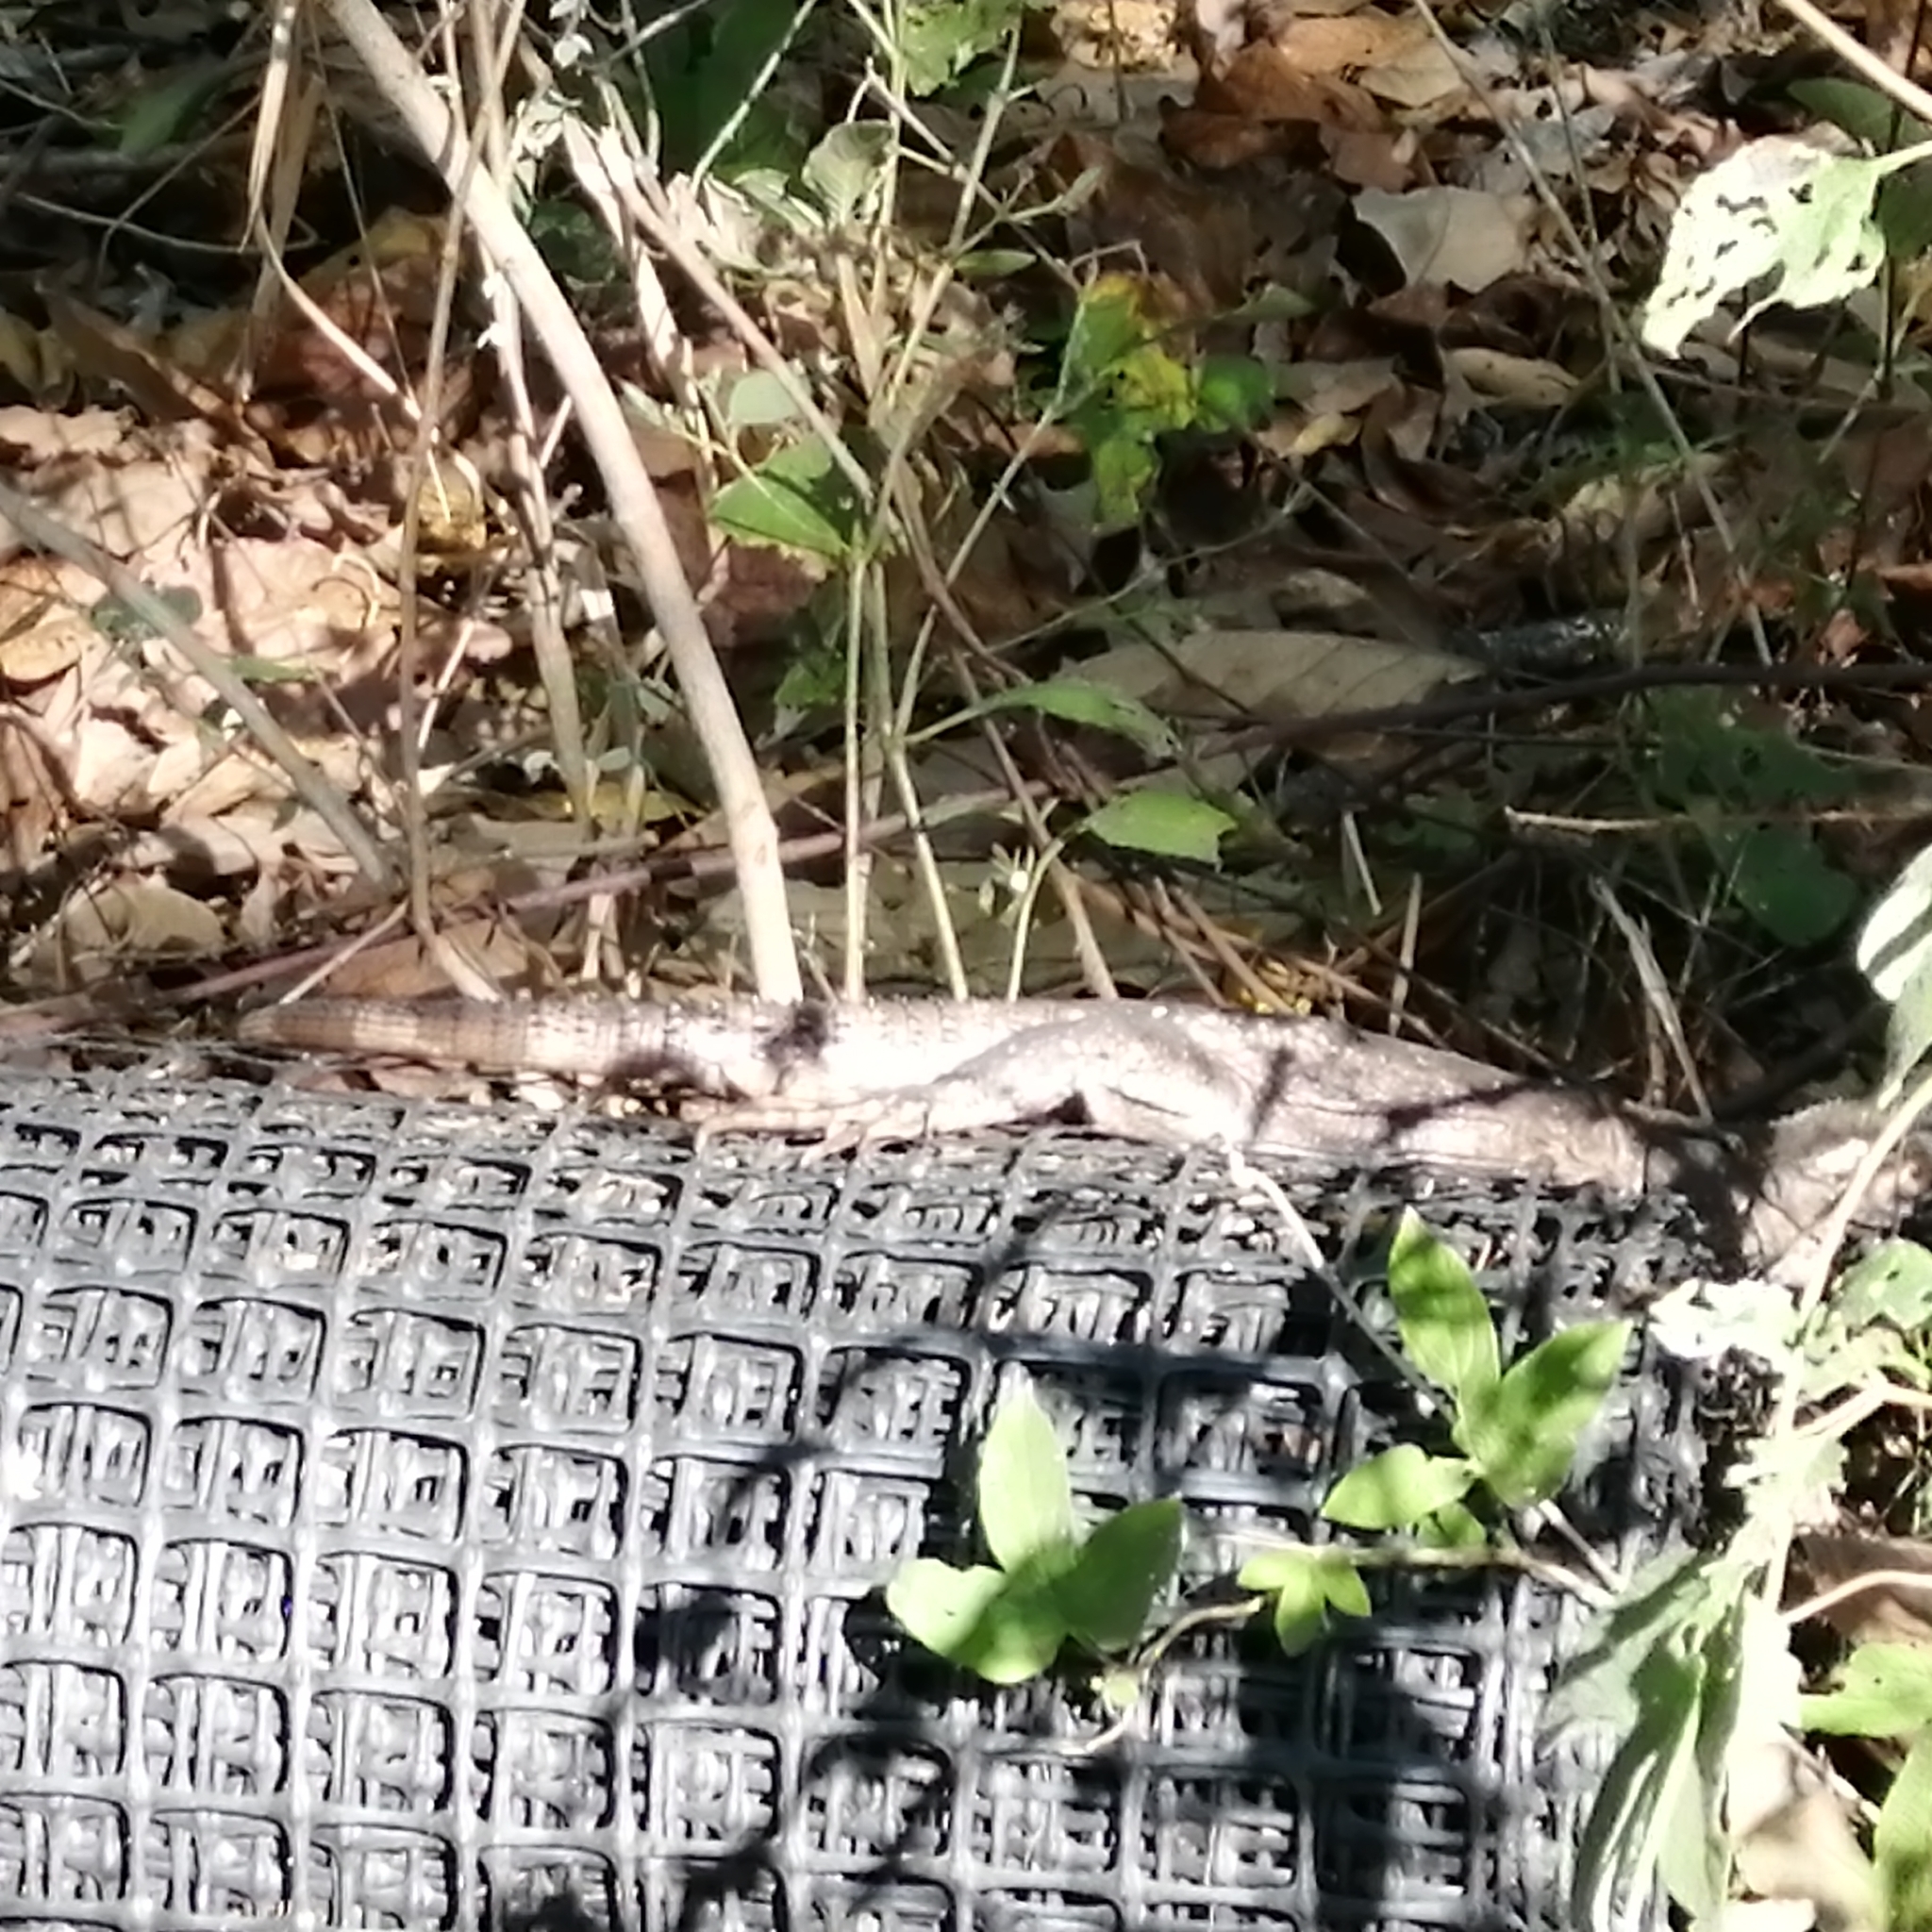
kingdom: Animalia
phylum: Chordata
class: Squamata
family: Iguanidae
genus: Ctenosaura
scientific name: Ctenosaura pectinata
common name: Guerreran spiny-tailed iguana
